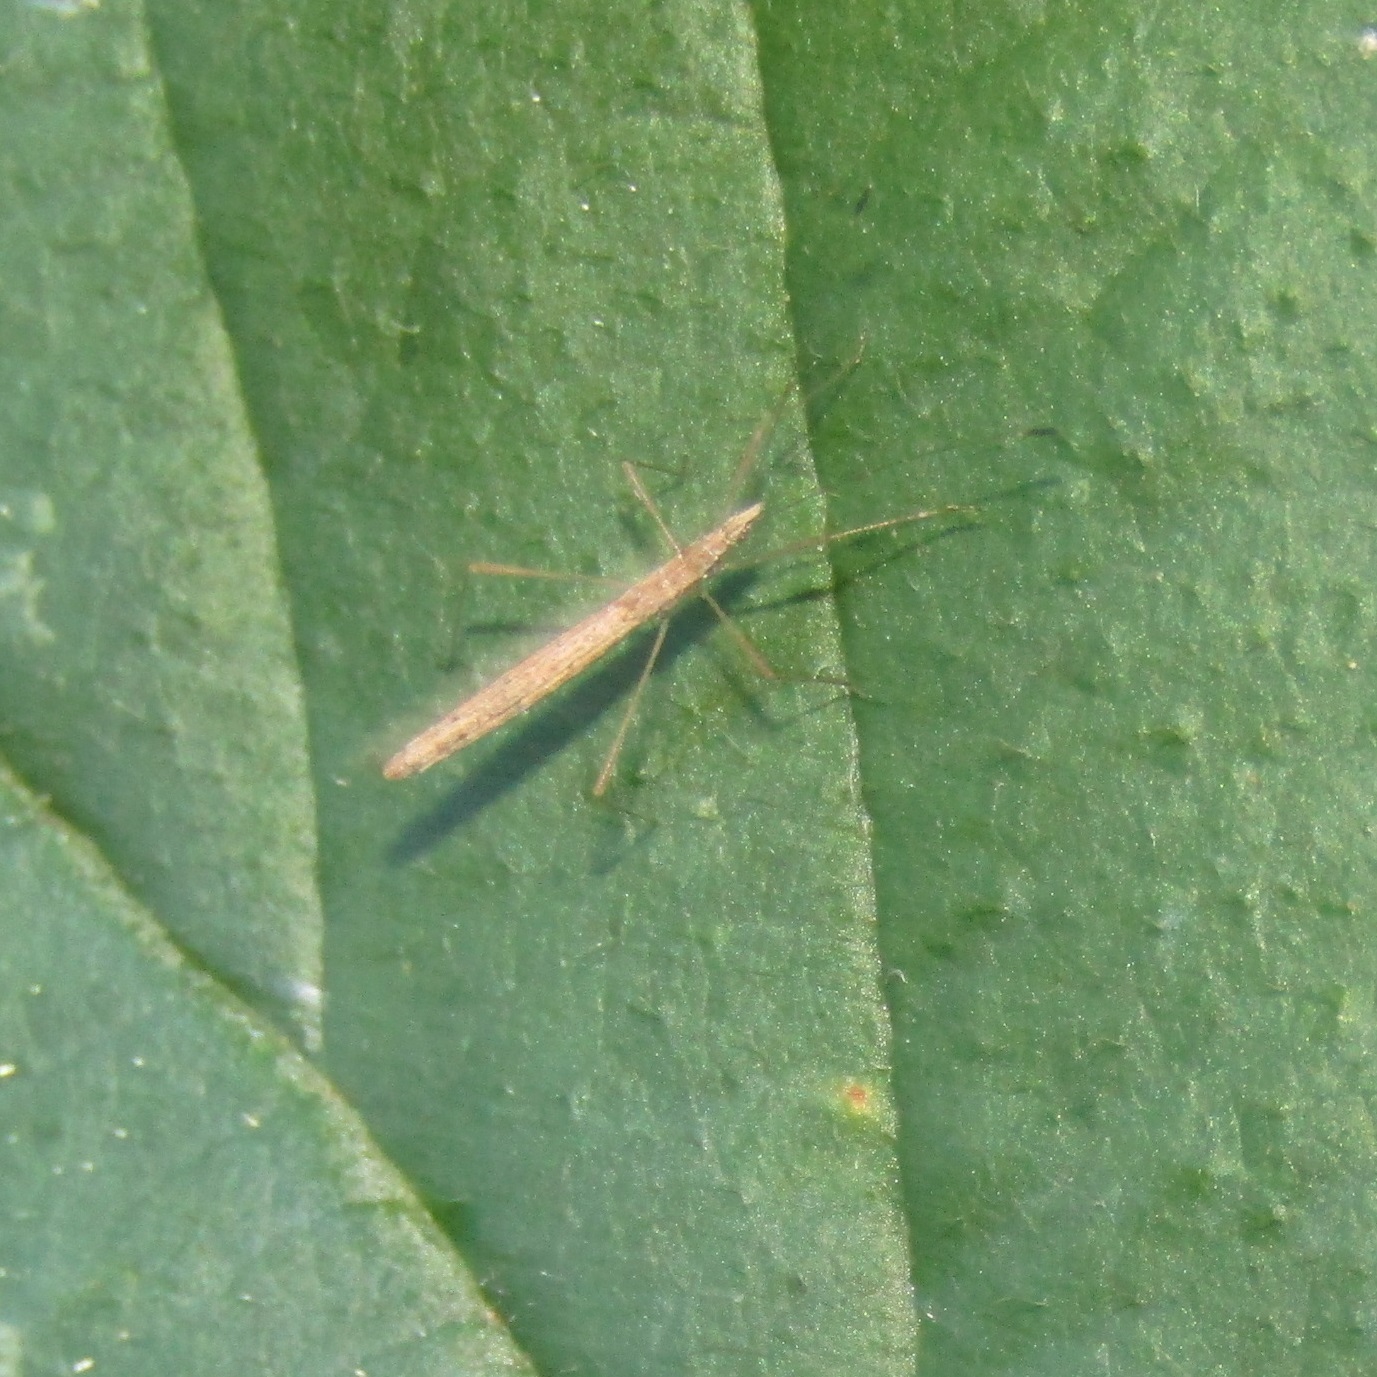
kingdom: Animalia
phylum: Arthropoda
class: Insecta
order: Hemiptera
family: Berytidae
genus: Bezu
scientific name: Bezu wakefieldi
